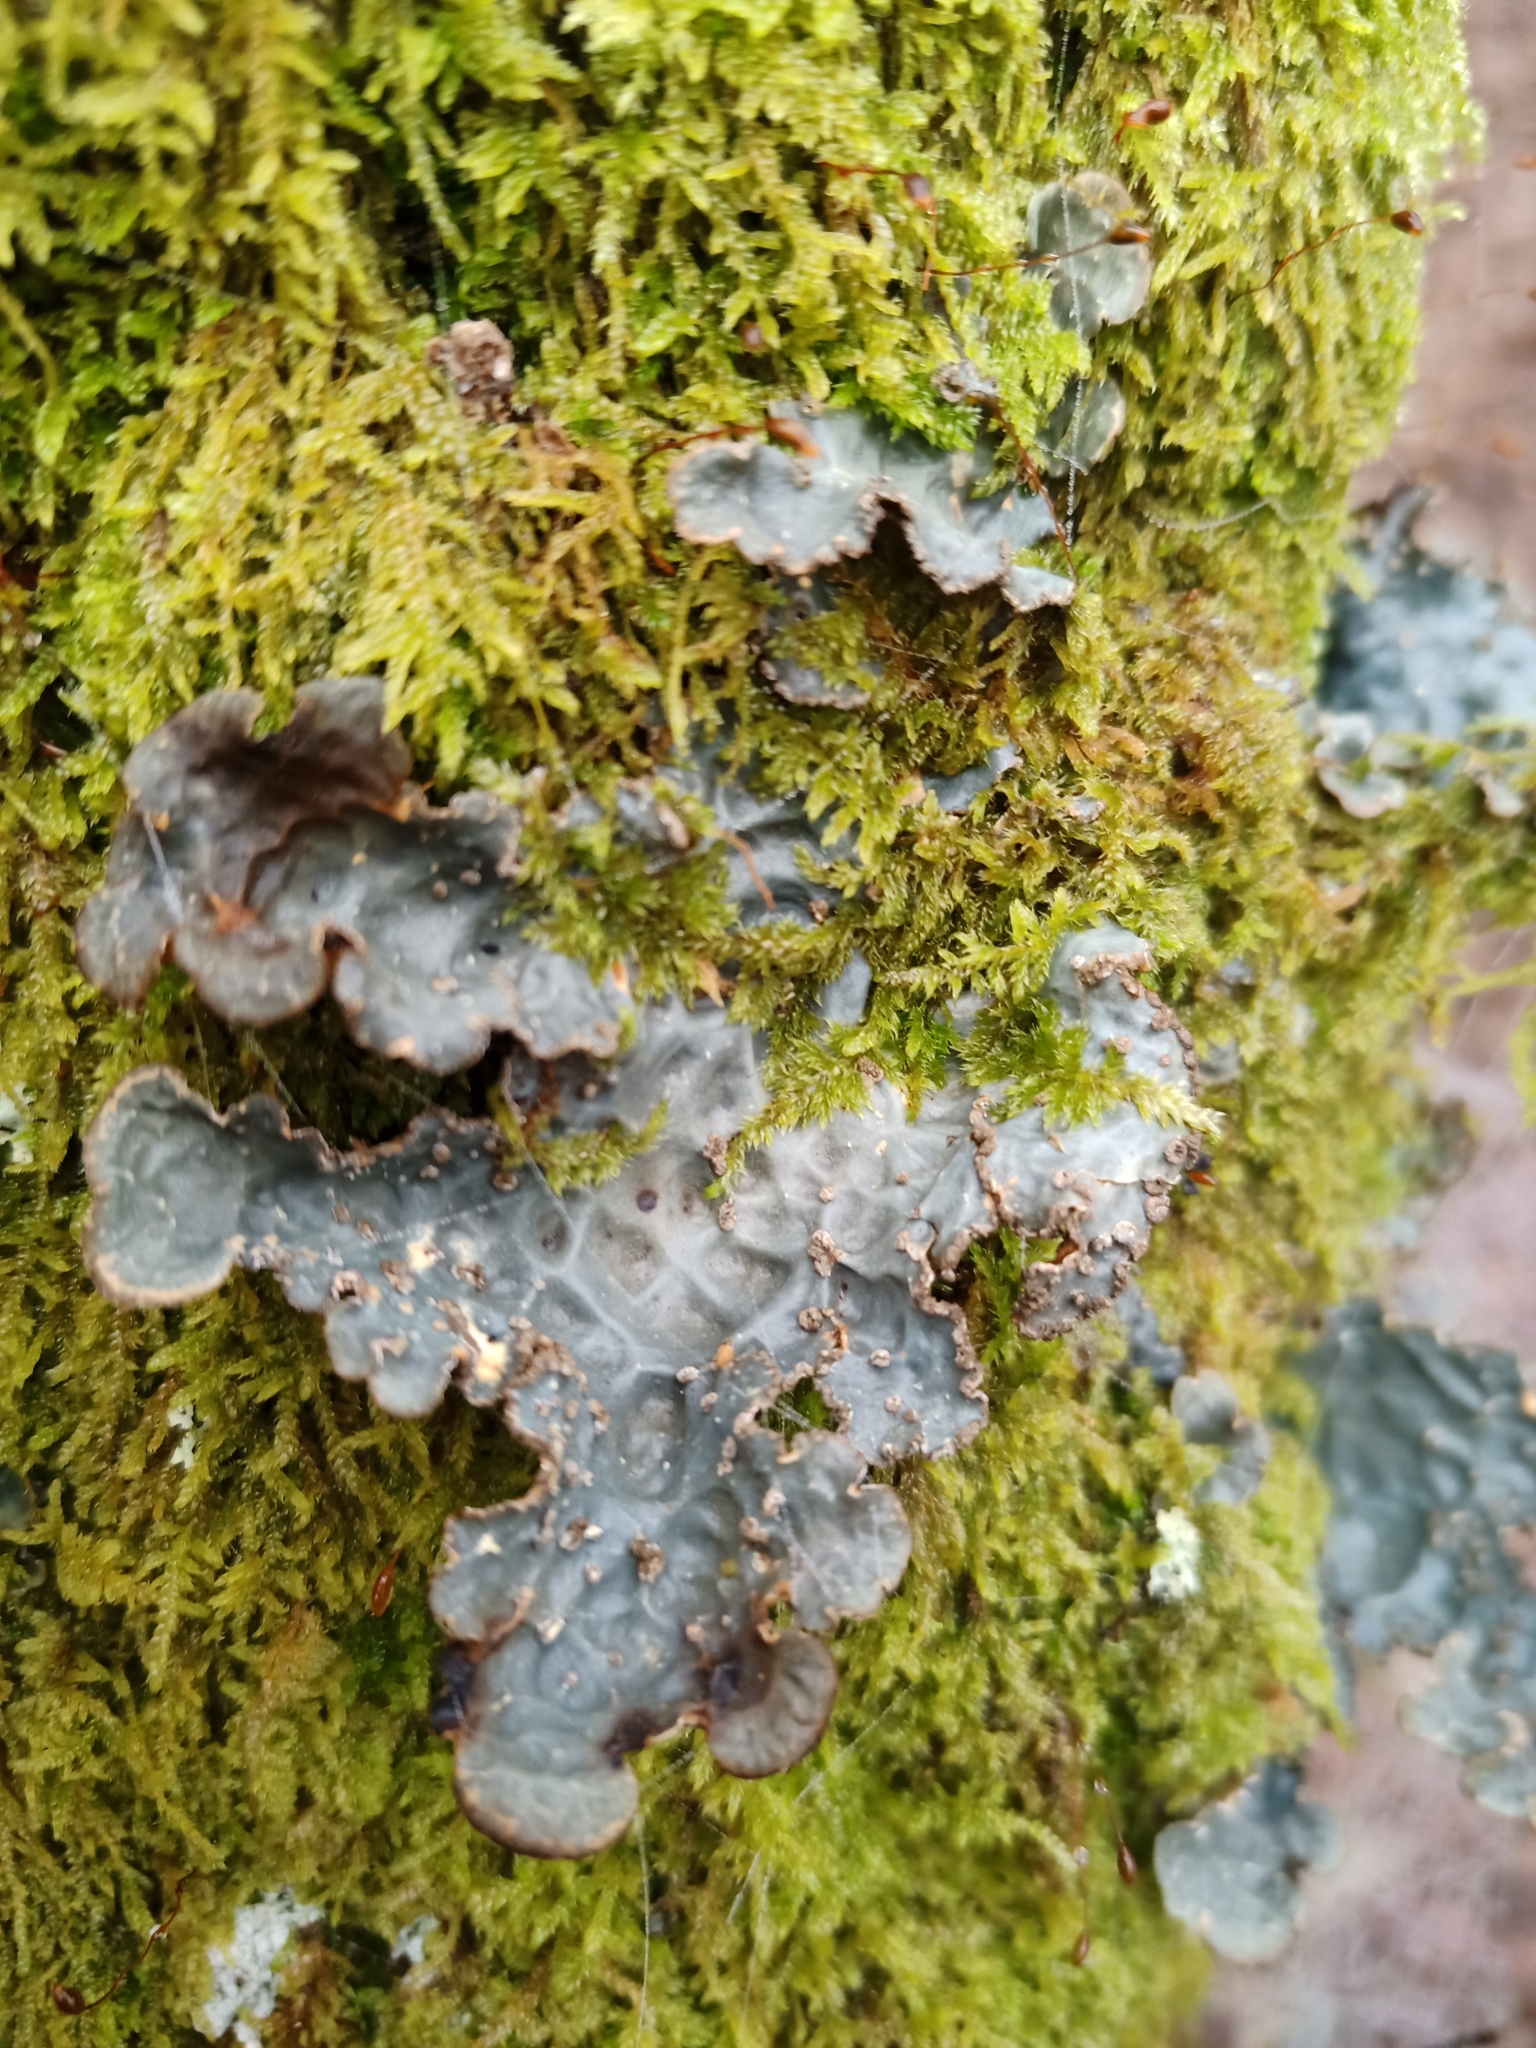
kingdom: Fungi
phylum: Ascomycota
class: Lecanoromycetes
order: Peltigerales
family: Lobariaceae
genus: Lobarina
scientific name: Lobarina scrobiculata
